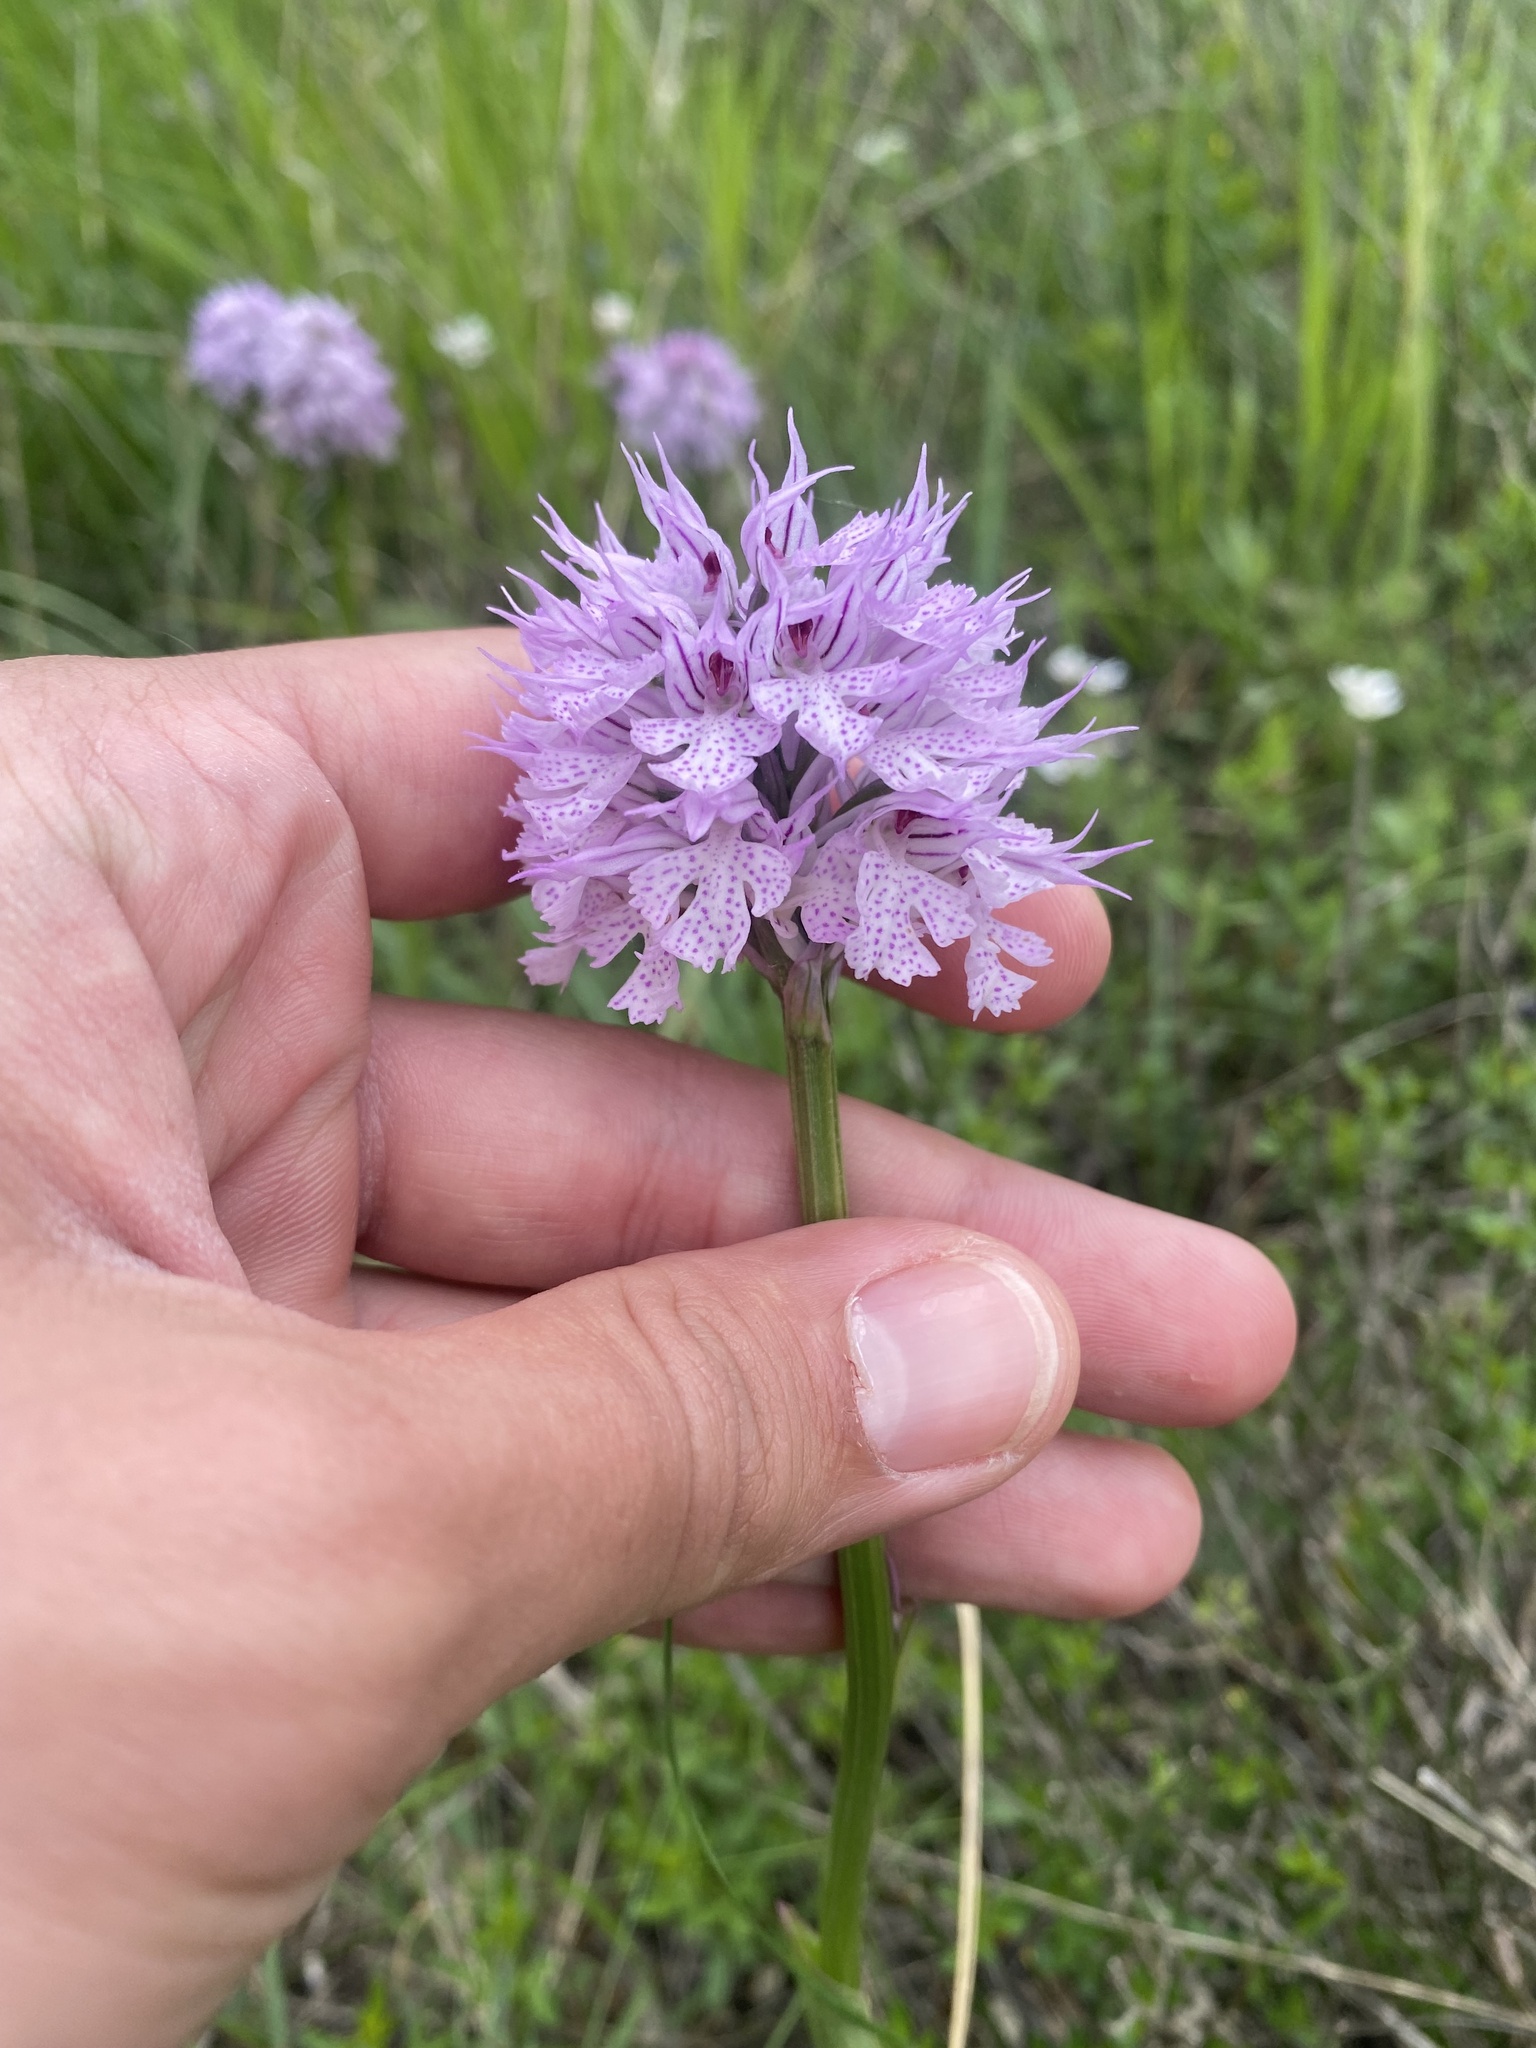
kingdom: Plantae
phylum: Tracheophyta
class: Liliopsida
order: Asparagales
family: Orchidaceae
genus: Neotinea
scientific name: Neotinea tridentata
